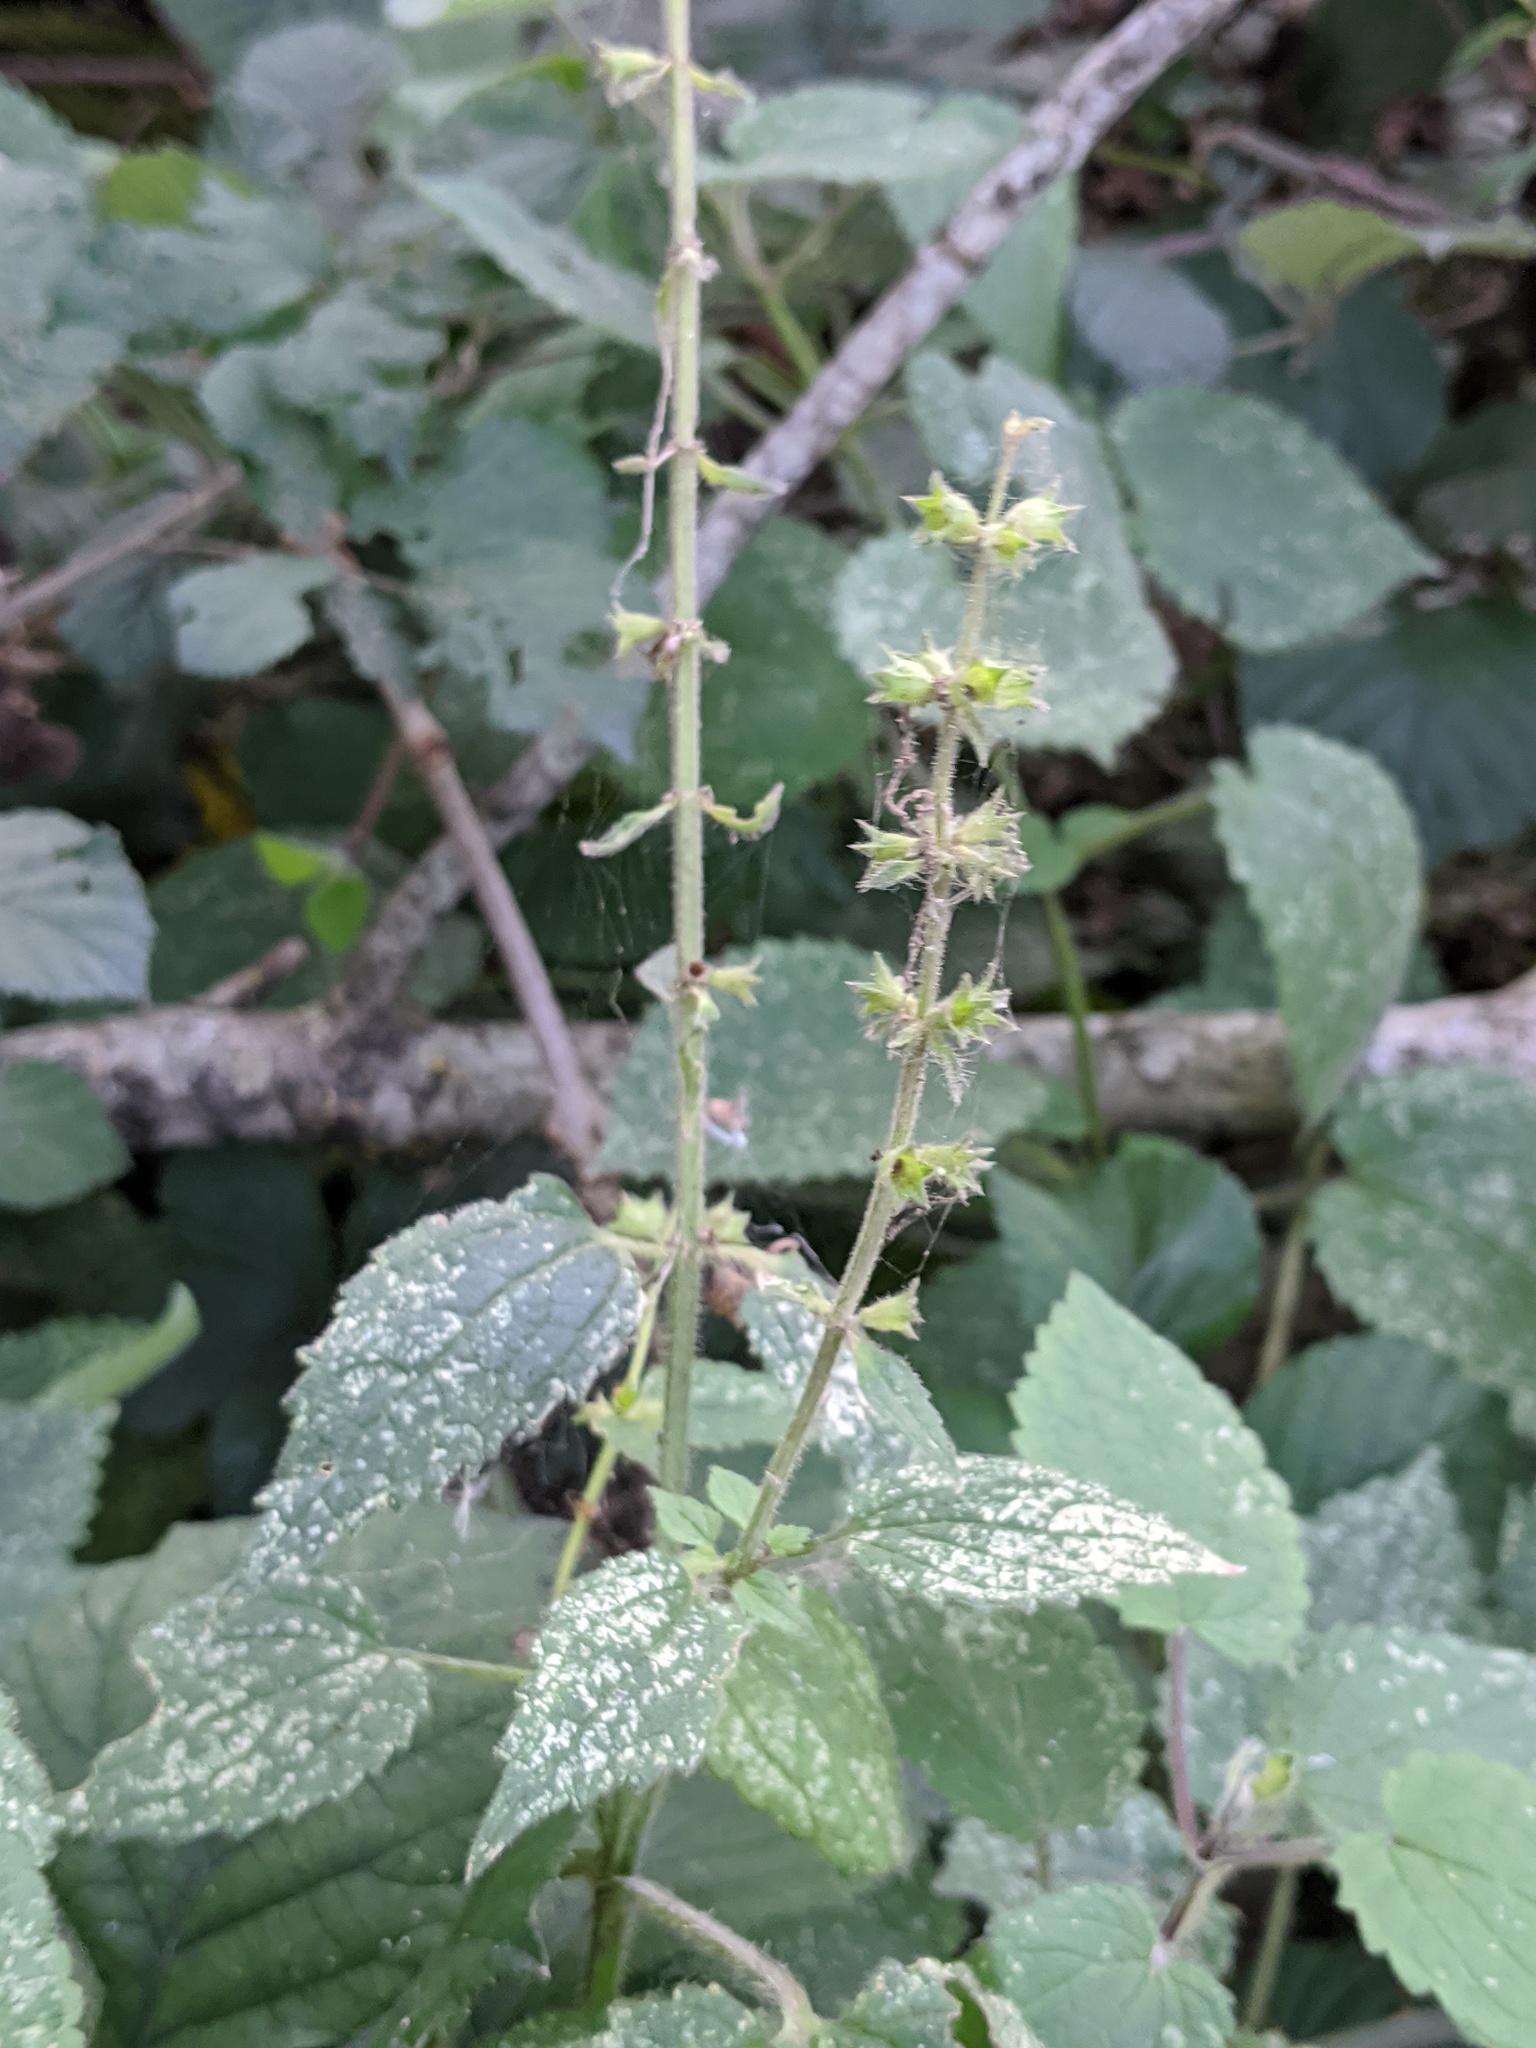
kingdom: Plantae
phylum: Tracheophyta
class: Magnoliopsida
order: Lamiales
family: Lamiaceae
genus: Stachys
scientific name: Stachys sylvatica
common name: Hedge woundwort
